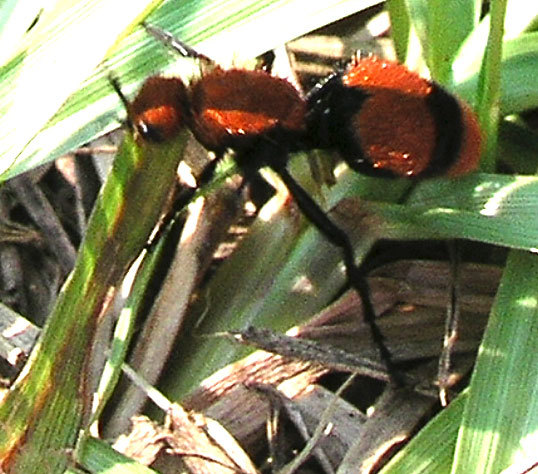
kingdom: Animalia
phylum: Arthropoda
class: Insecta
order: Hymenoptera
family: Mutillidae
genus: Dasymutilla
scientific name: Dasymutilla occidentalis
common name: Common eastern velvet ant
